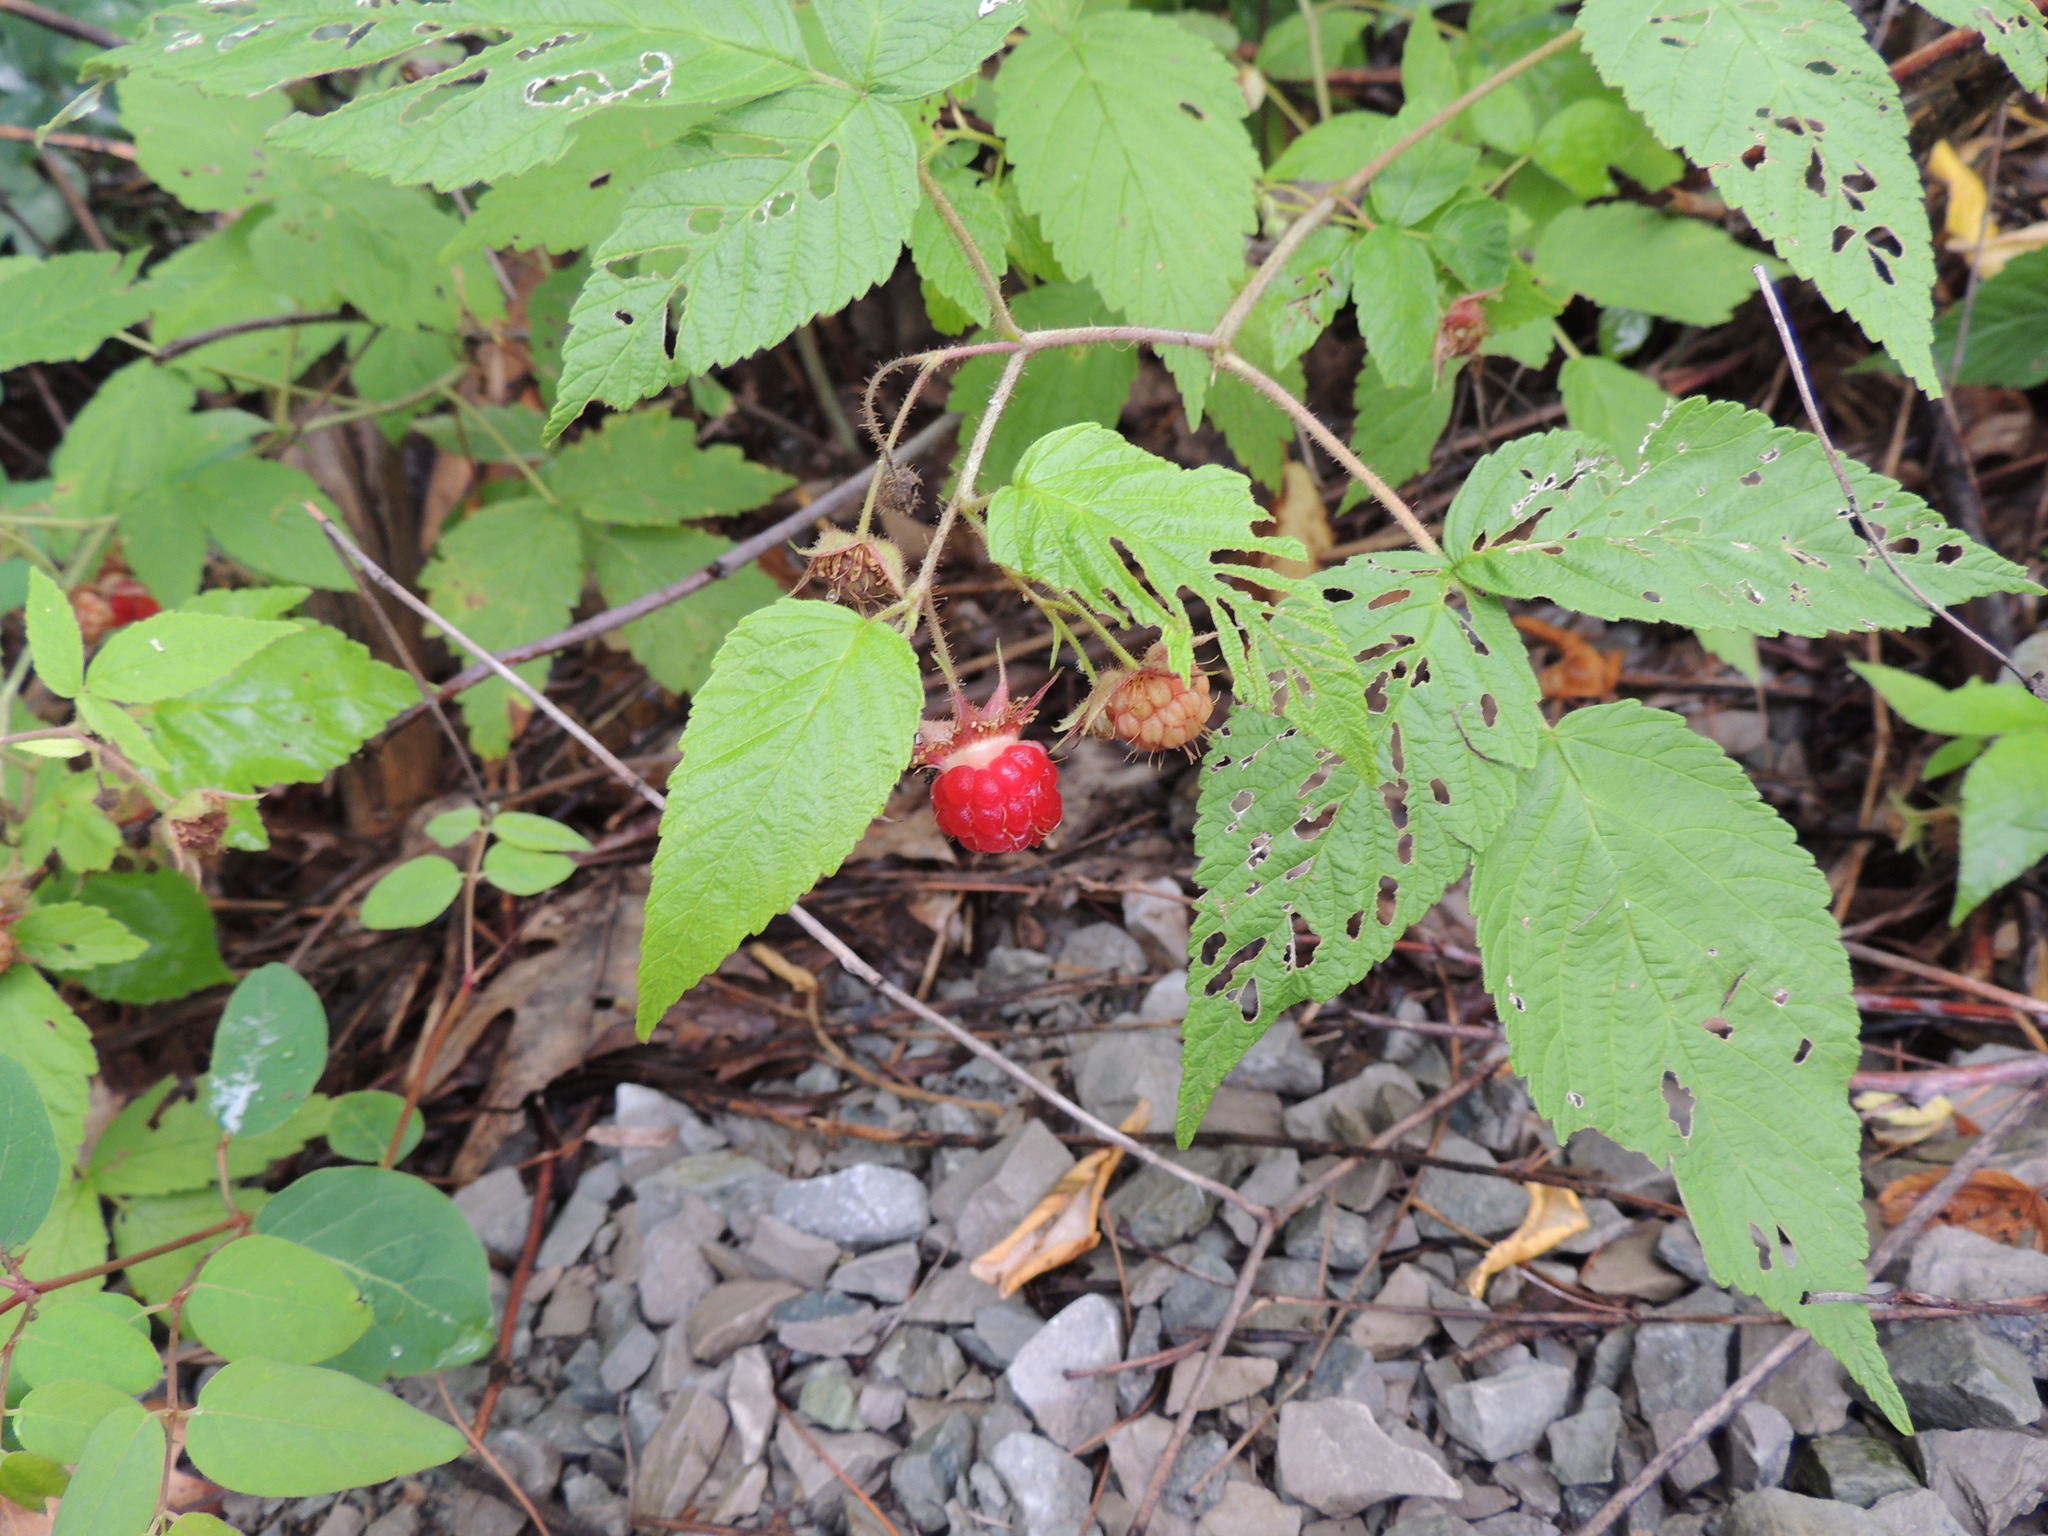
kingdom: Plantae
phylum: Tracheophyta
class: Magnoliopsida
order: Rosales
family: Rosaceae
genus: Rubus
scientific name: Rubus idaeus
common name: Raspberry
